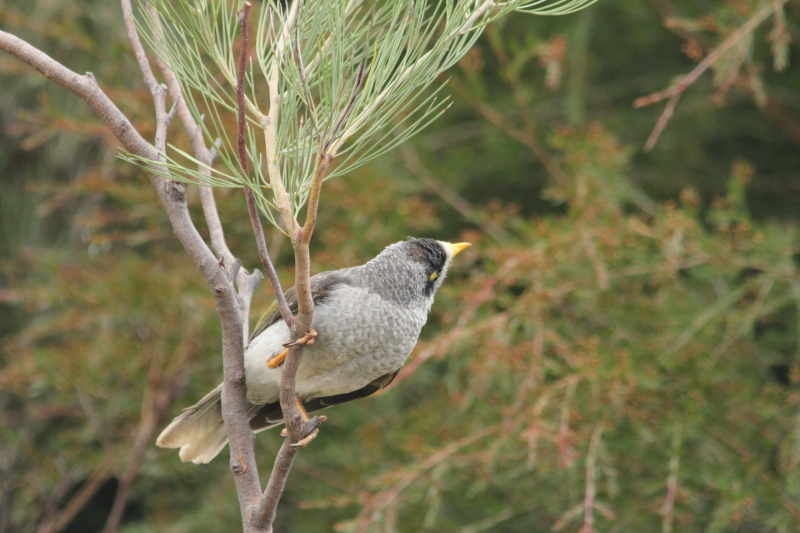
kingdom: Animalia
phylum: Chordata
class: Aves
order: Passeriformes
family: Meliphagidae
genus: Manorina
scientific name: Manorina melanocephala
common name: Noisy miner
